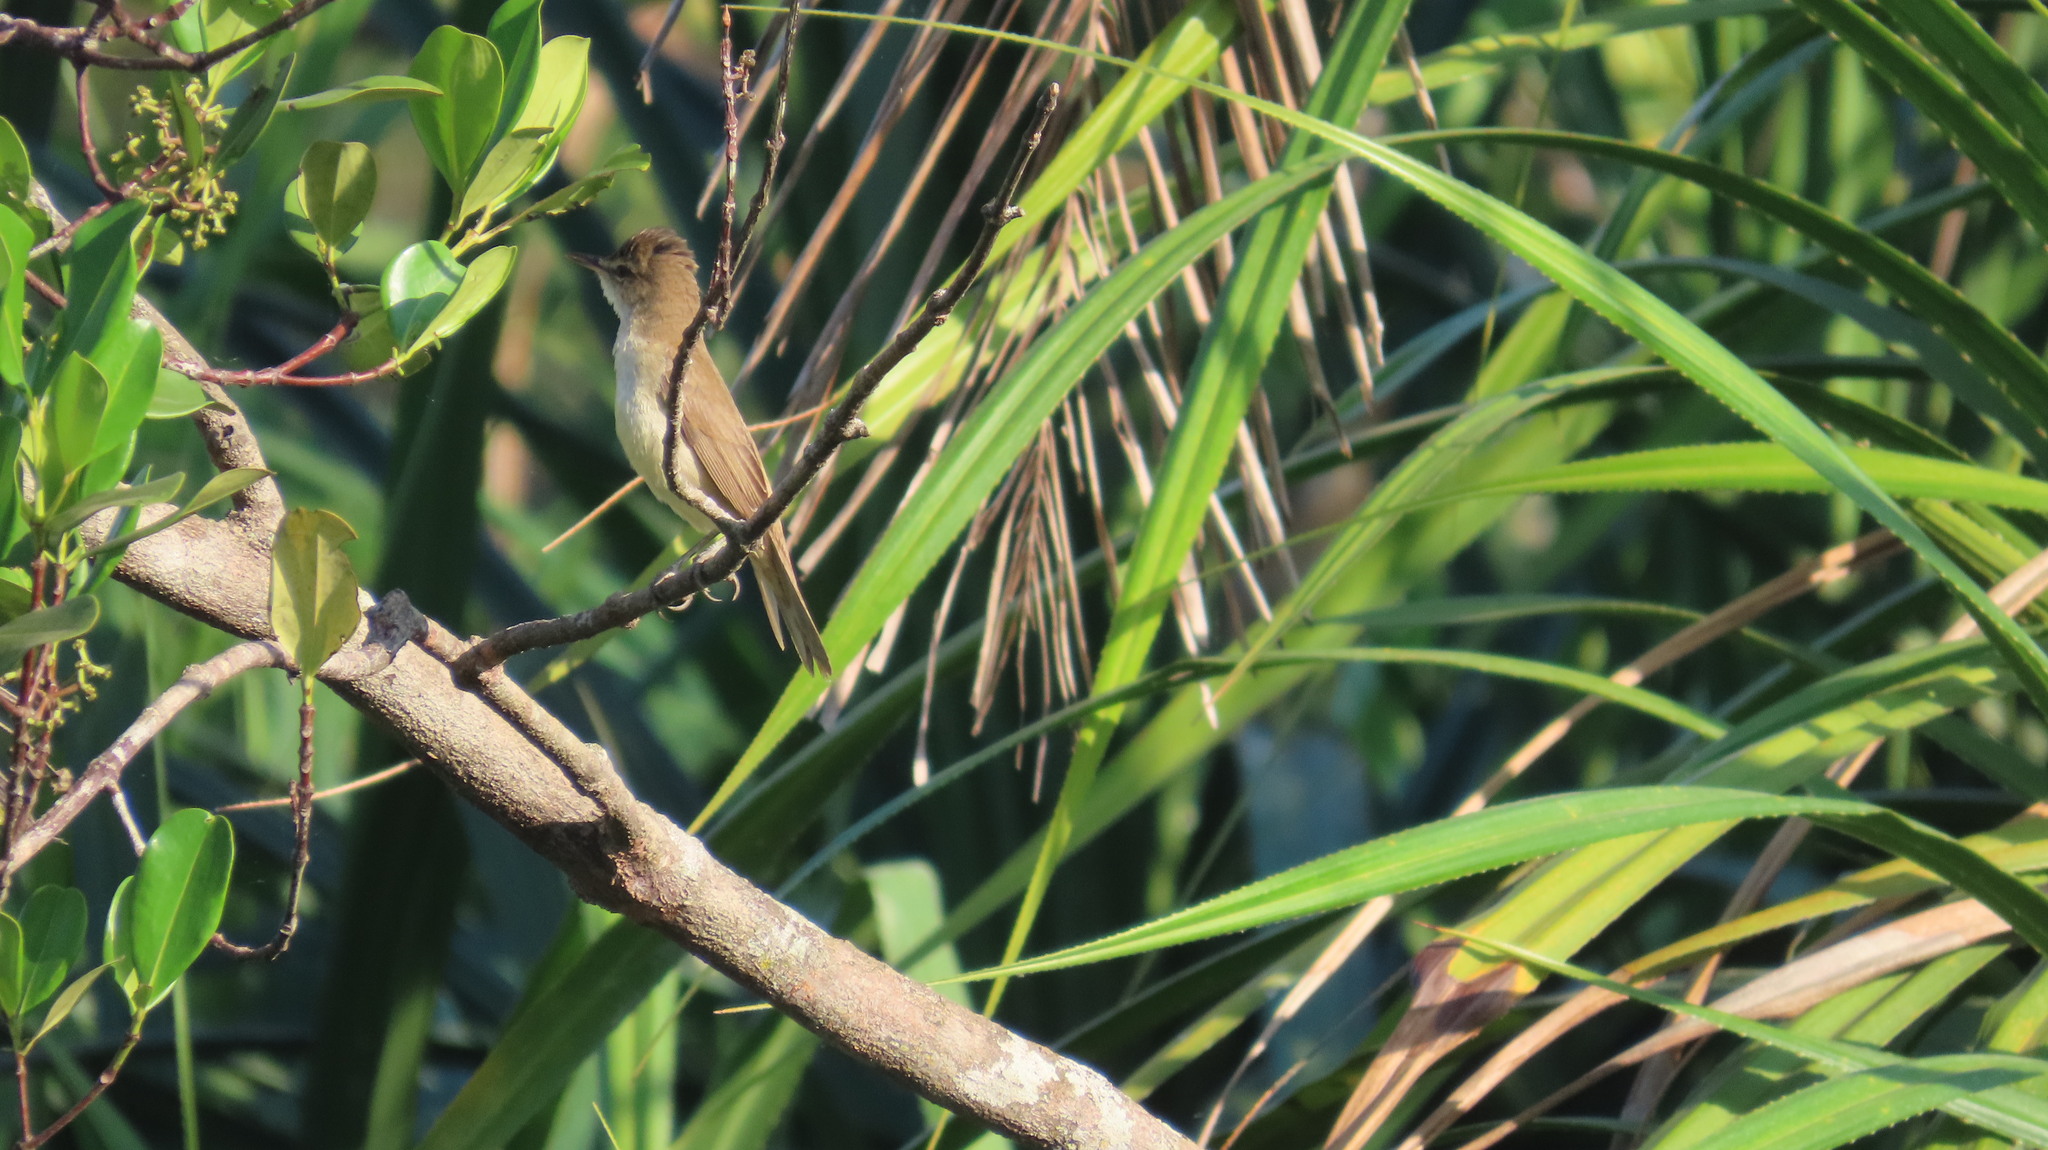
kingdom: Animalia
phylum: Chordata
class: Aves
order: Passeriformes
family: Acrocephalidae
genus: Acrocephalus
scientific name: Acrocephalus stentoreus
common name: Clamorous reed warbler
